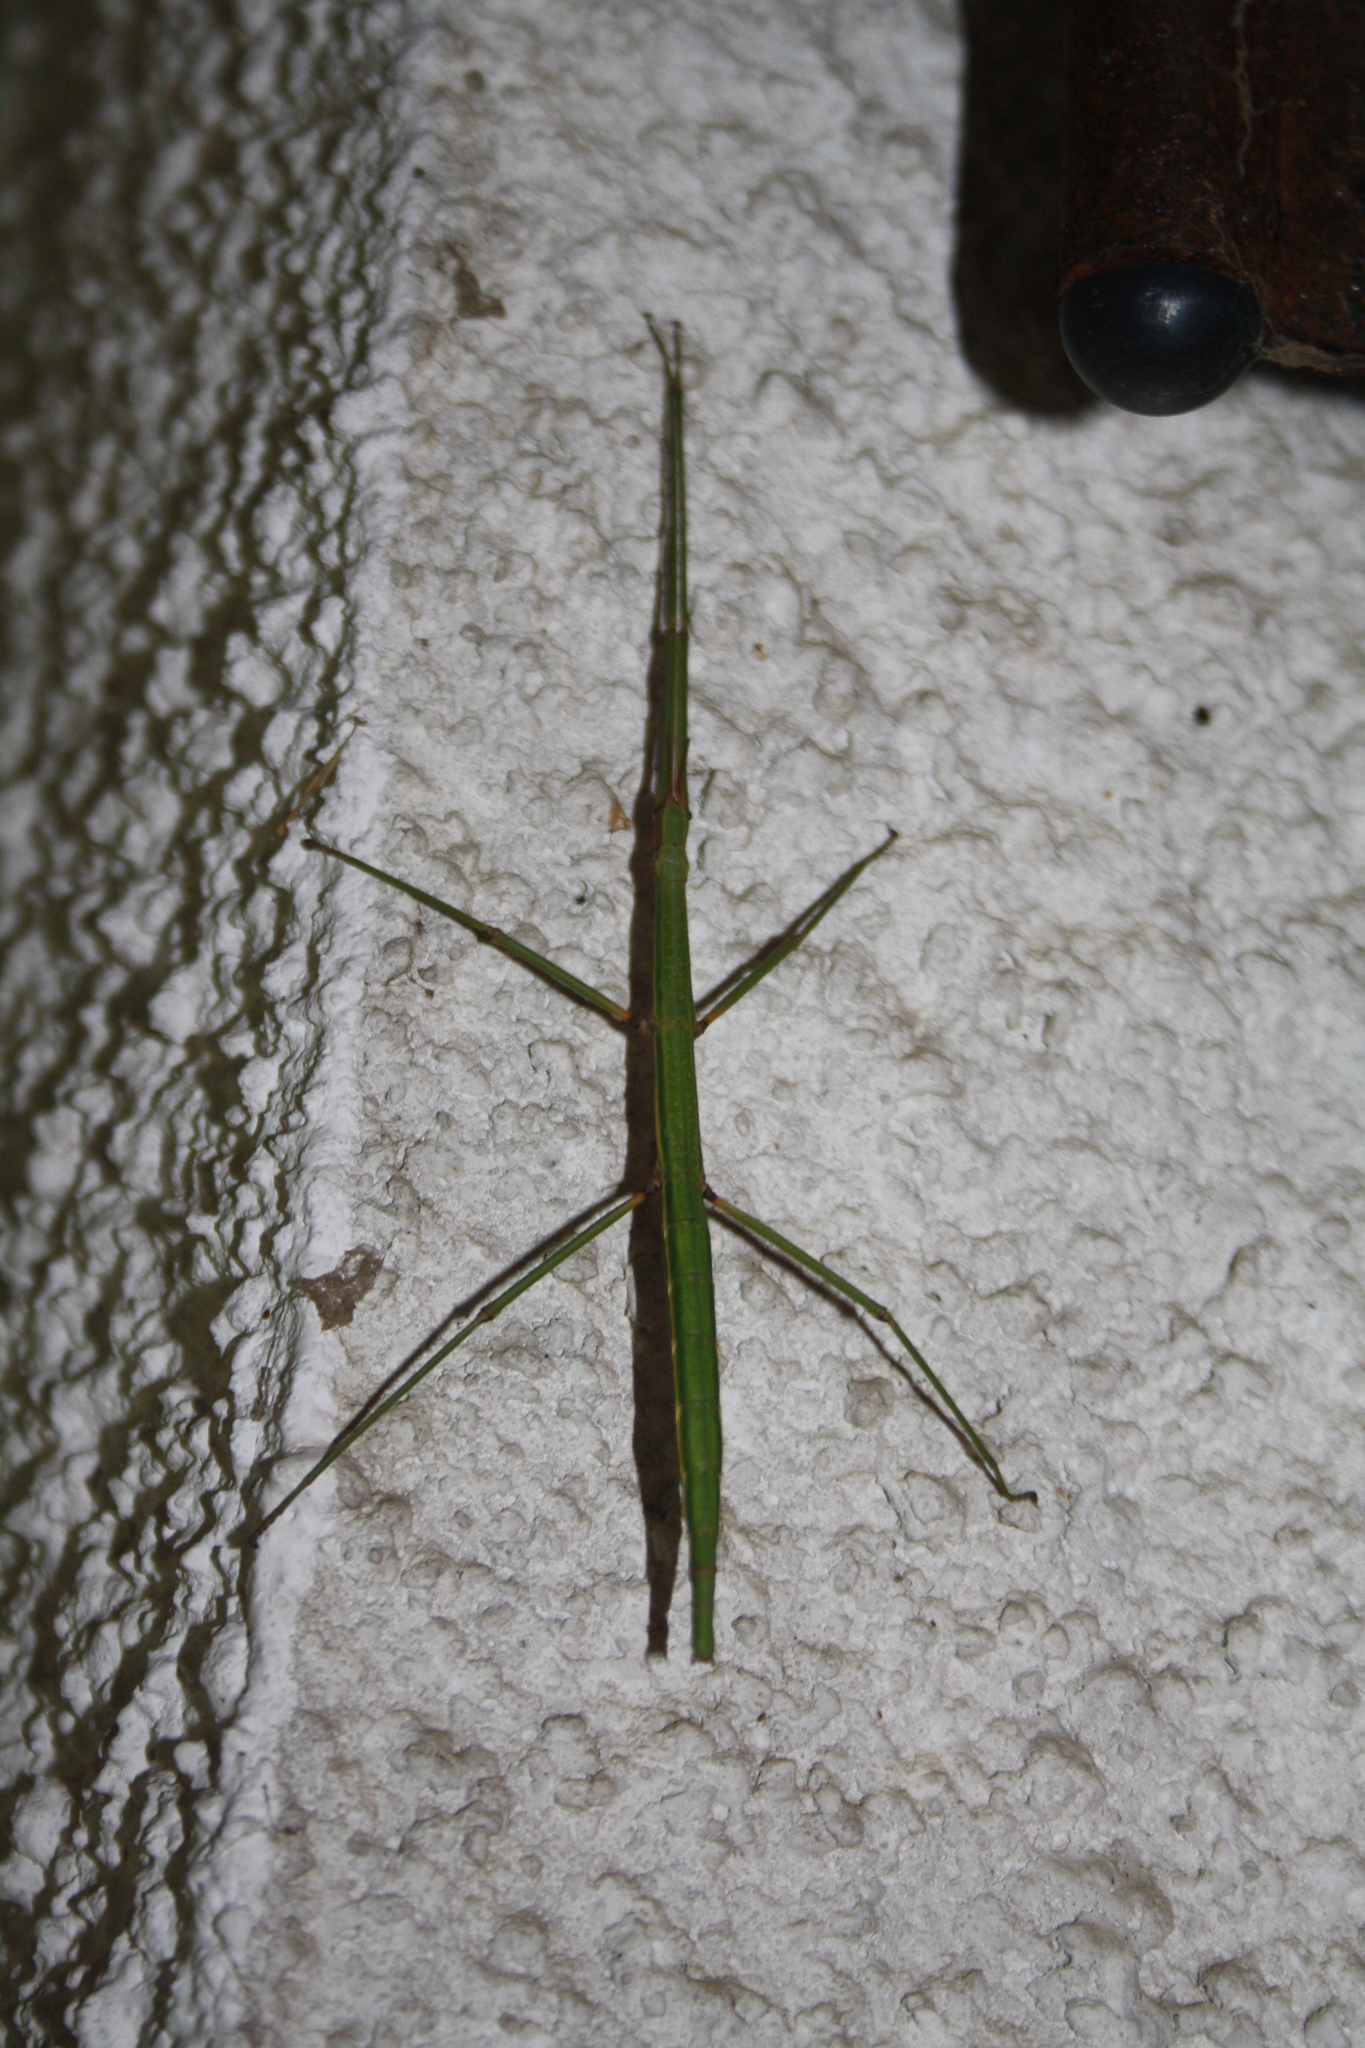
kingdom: Animalia
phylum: Arthropoda
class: Insecta
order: Phasmida
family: Bacillidae
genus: Bacillus
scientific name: Bacillus atticus
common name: Greek stick-insect
